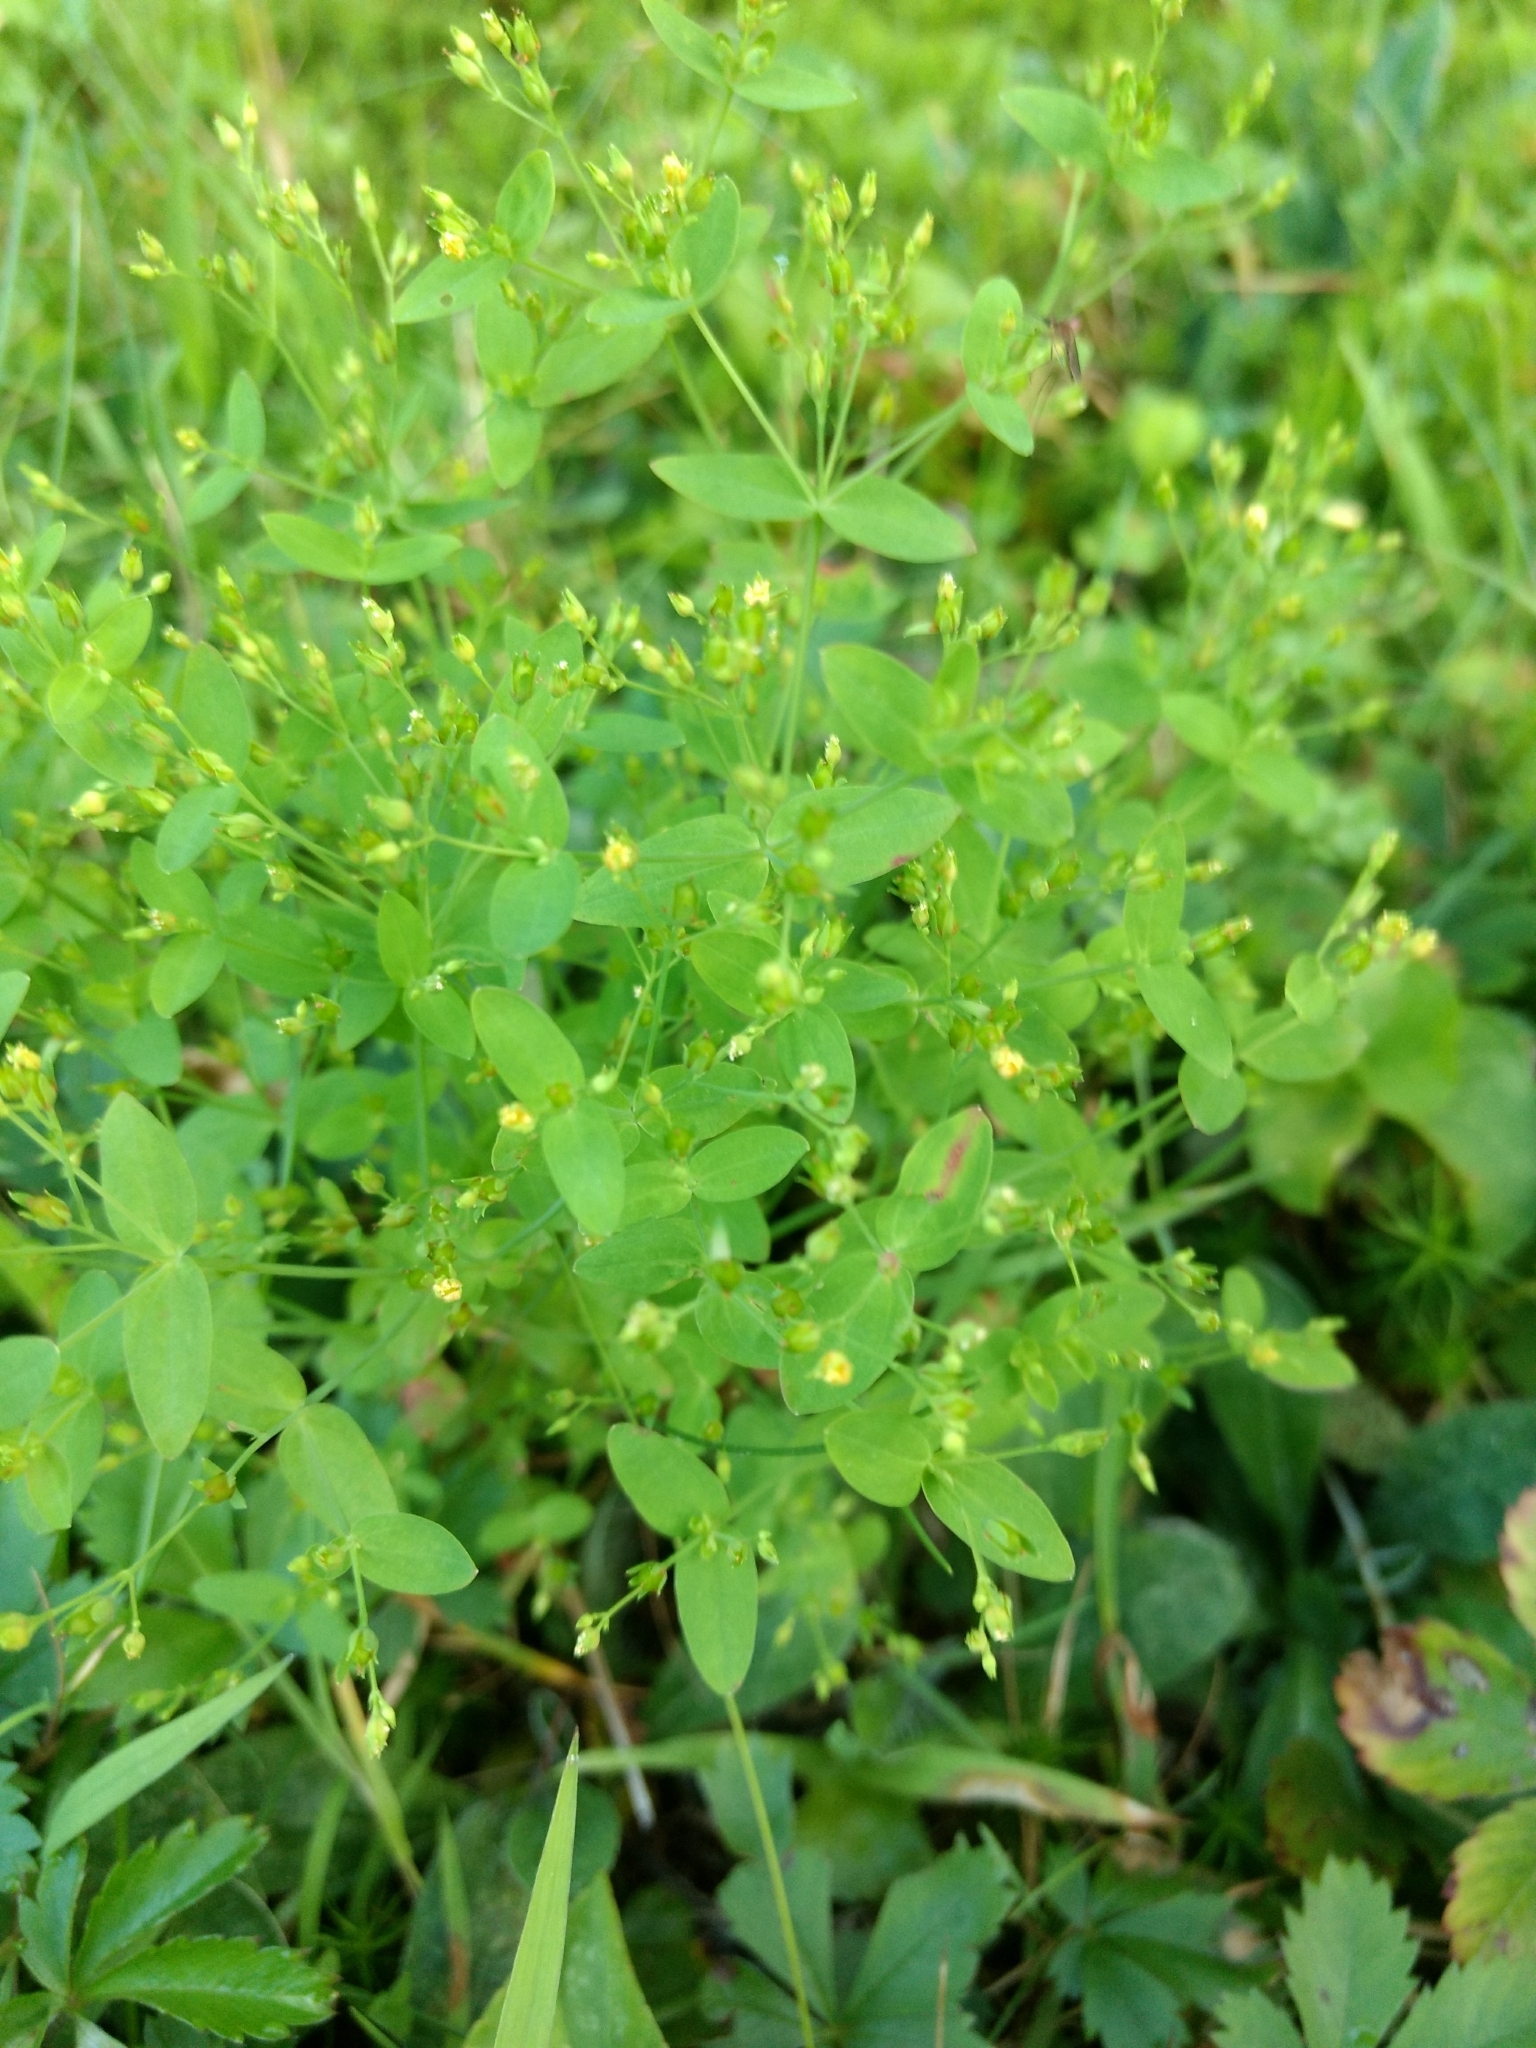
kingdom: Plantae
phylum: Tracheophyta
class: Magnoliopsida
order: Malpighiales
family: Hypericaceae
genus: Hypericum
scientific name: Hypericum mutilum
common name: Dwarf st. john's-wort
